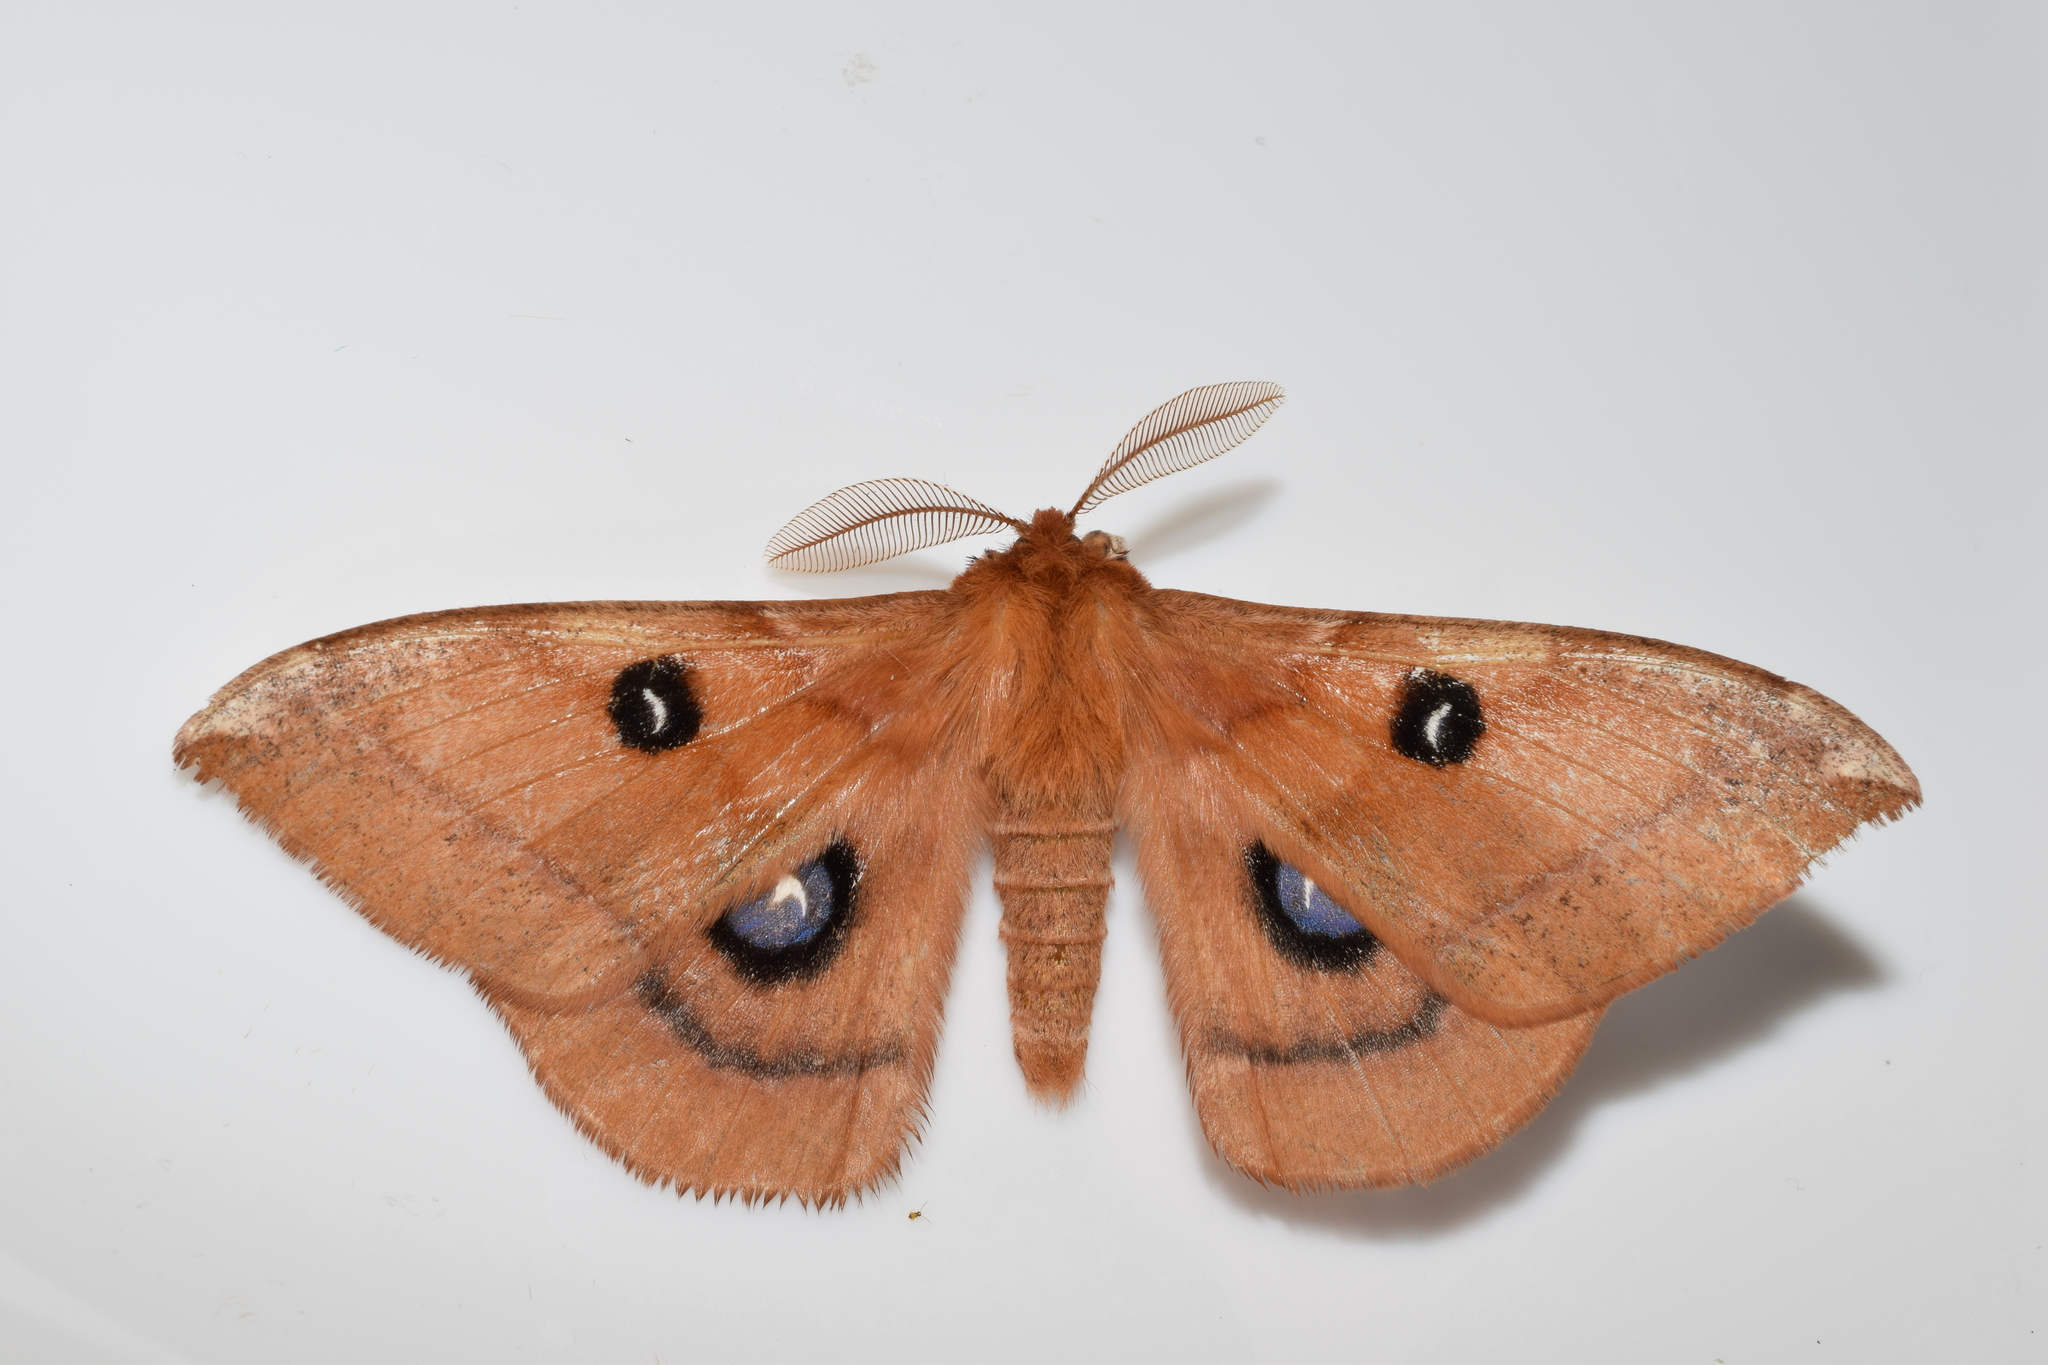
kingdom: Animalia
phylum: Arthropoda
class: Insecta
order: Lepidoptera
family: Saturniidae
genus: Aglia
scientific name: Aglia japonica
